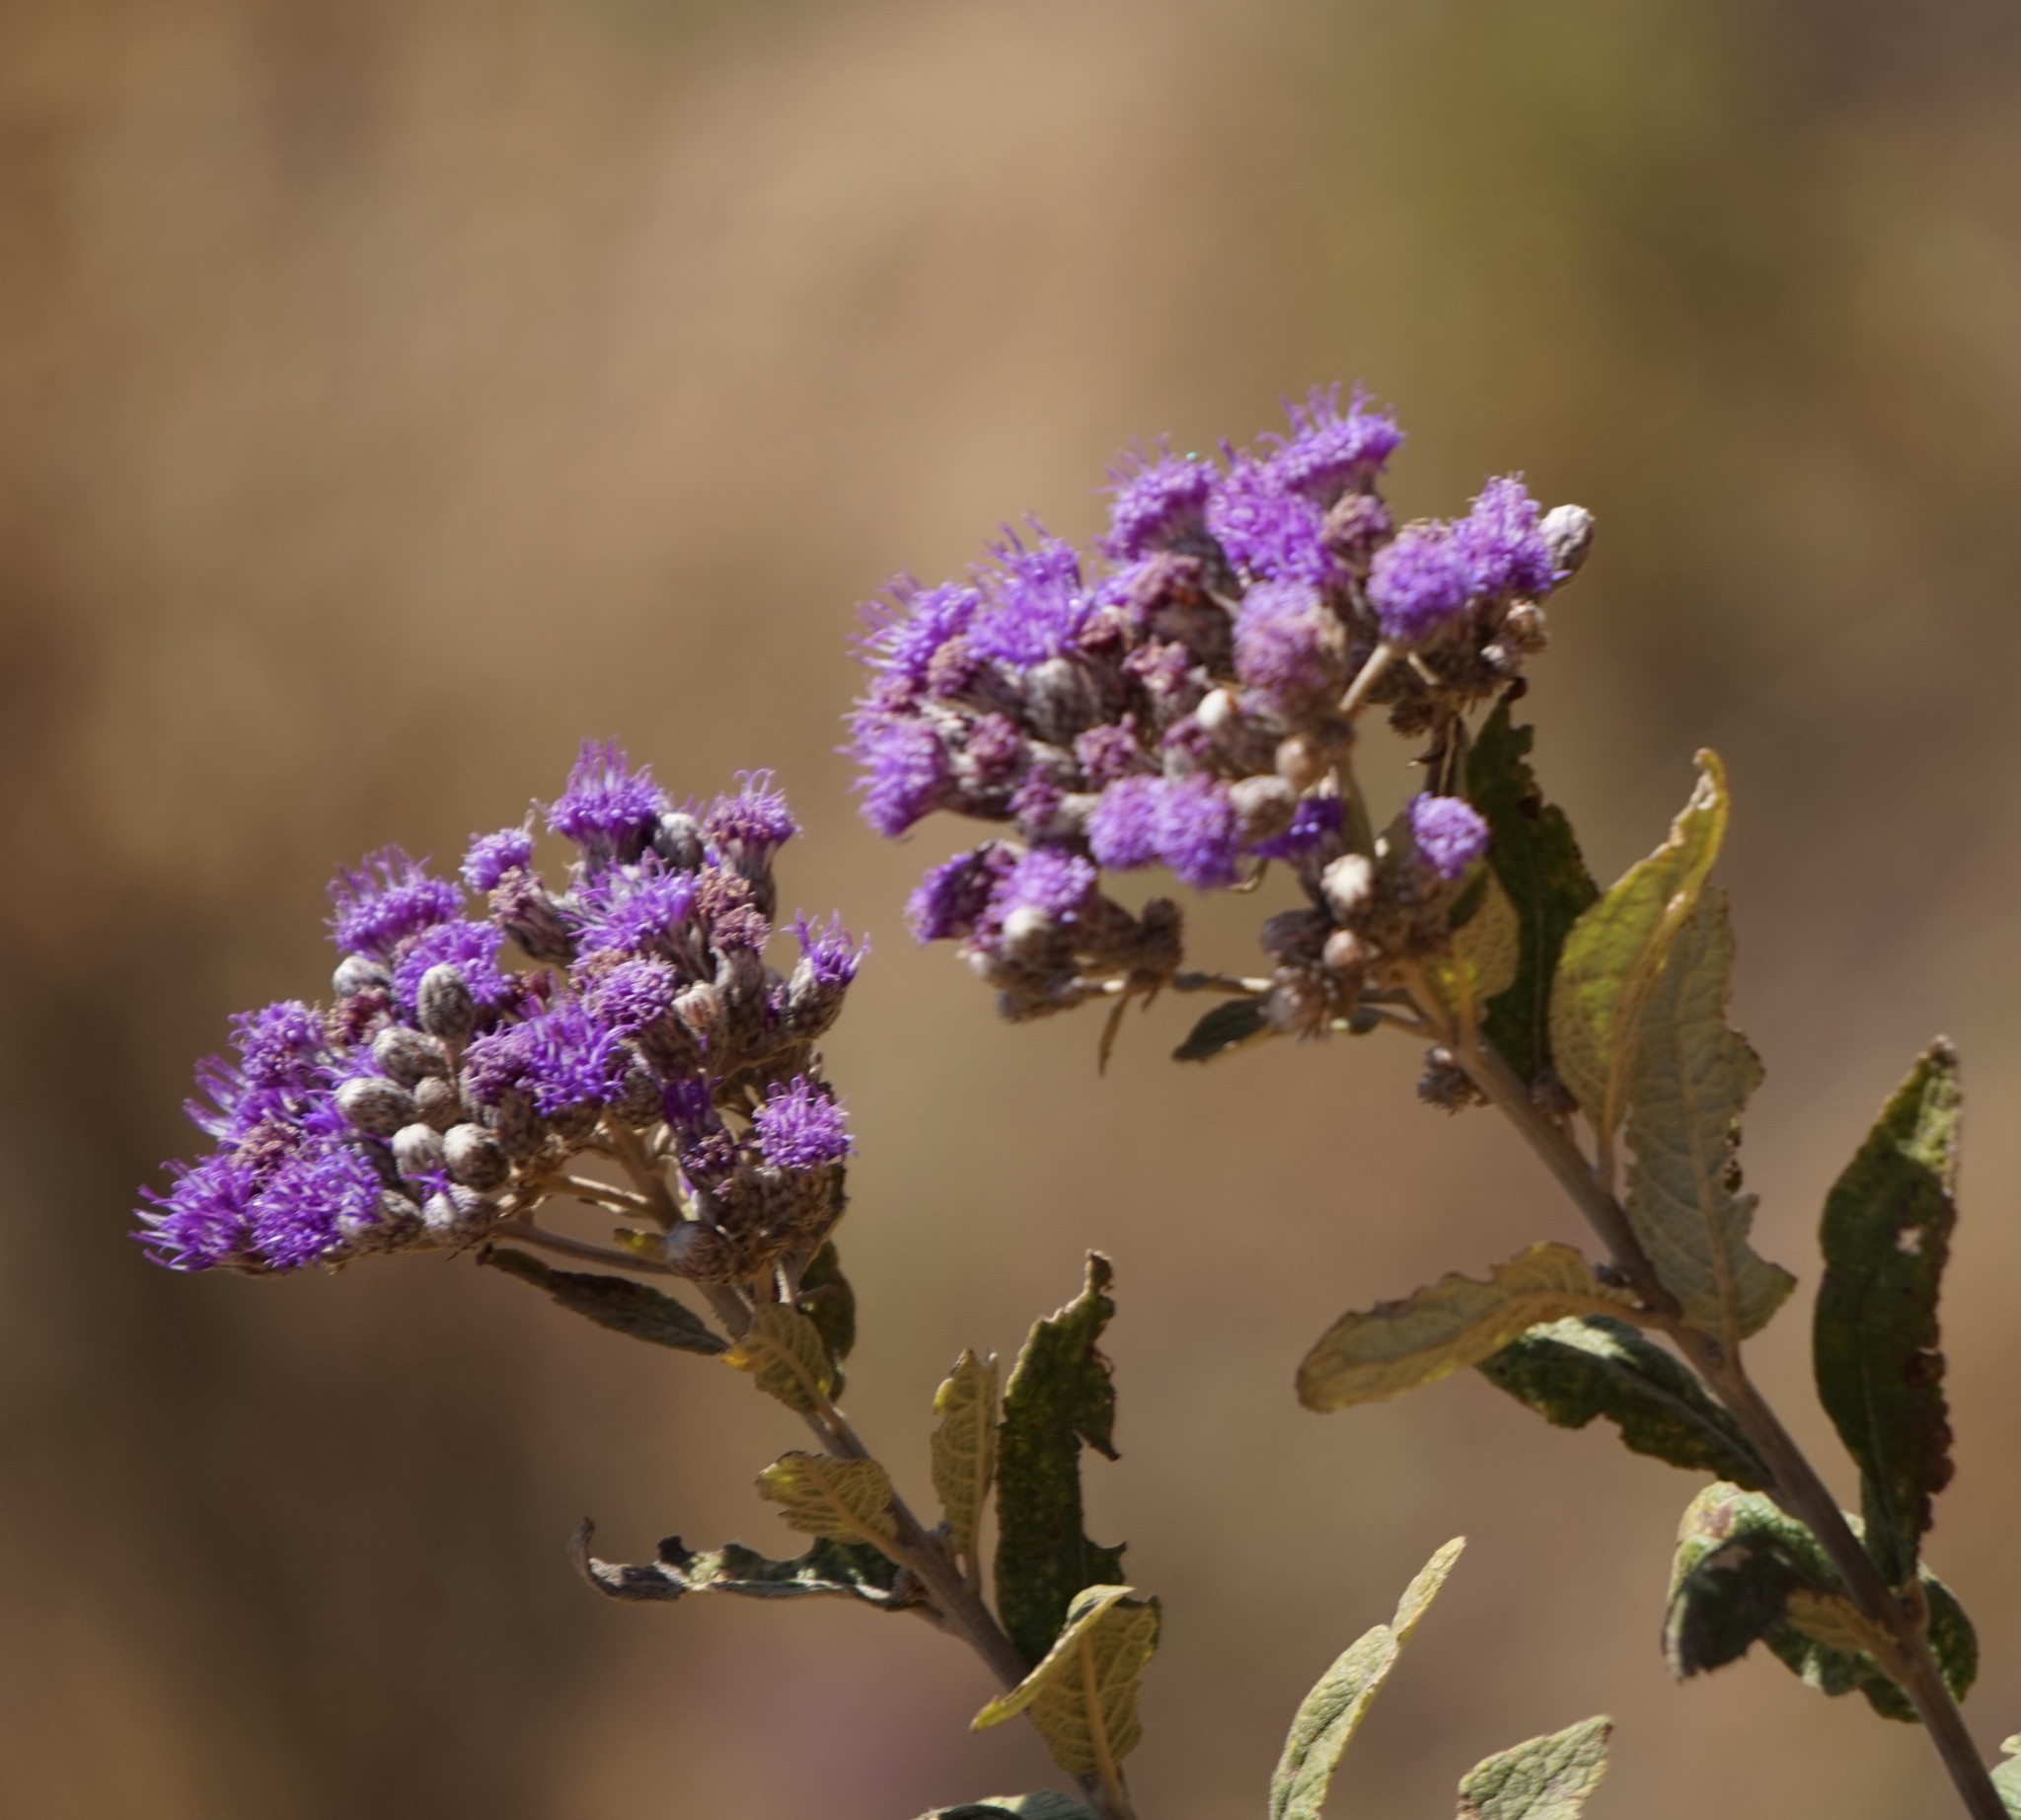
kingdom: Plantae
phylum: Tracheophyta
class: Magnoliopsida
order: Asterales
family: Asteraceae
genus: Vernonia
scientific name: Vernonia bipontini
